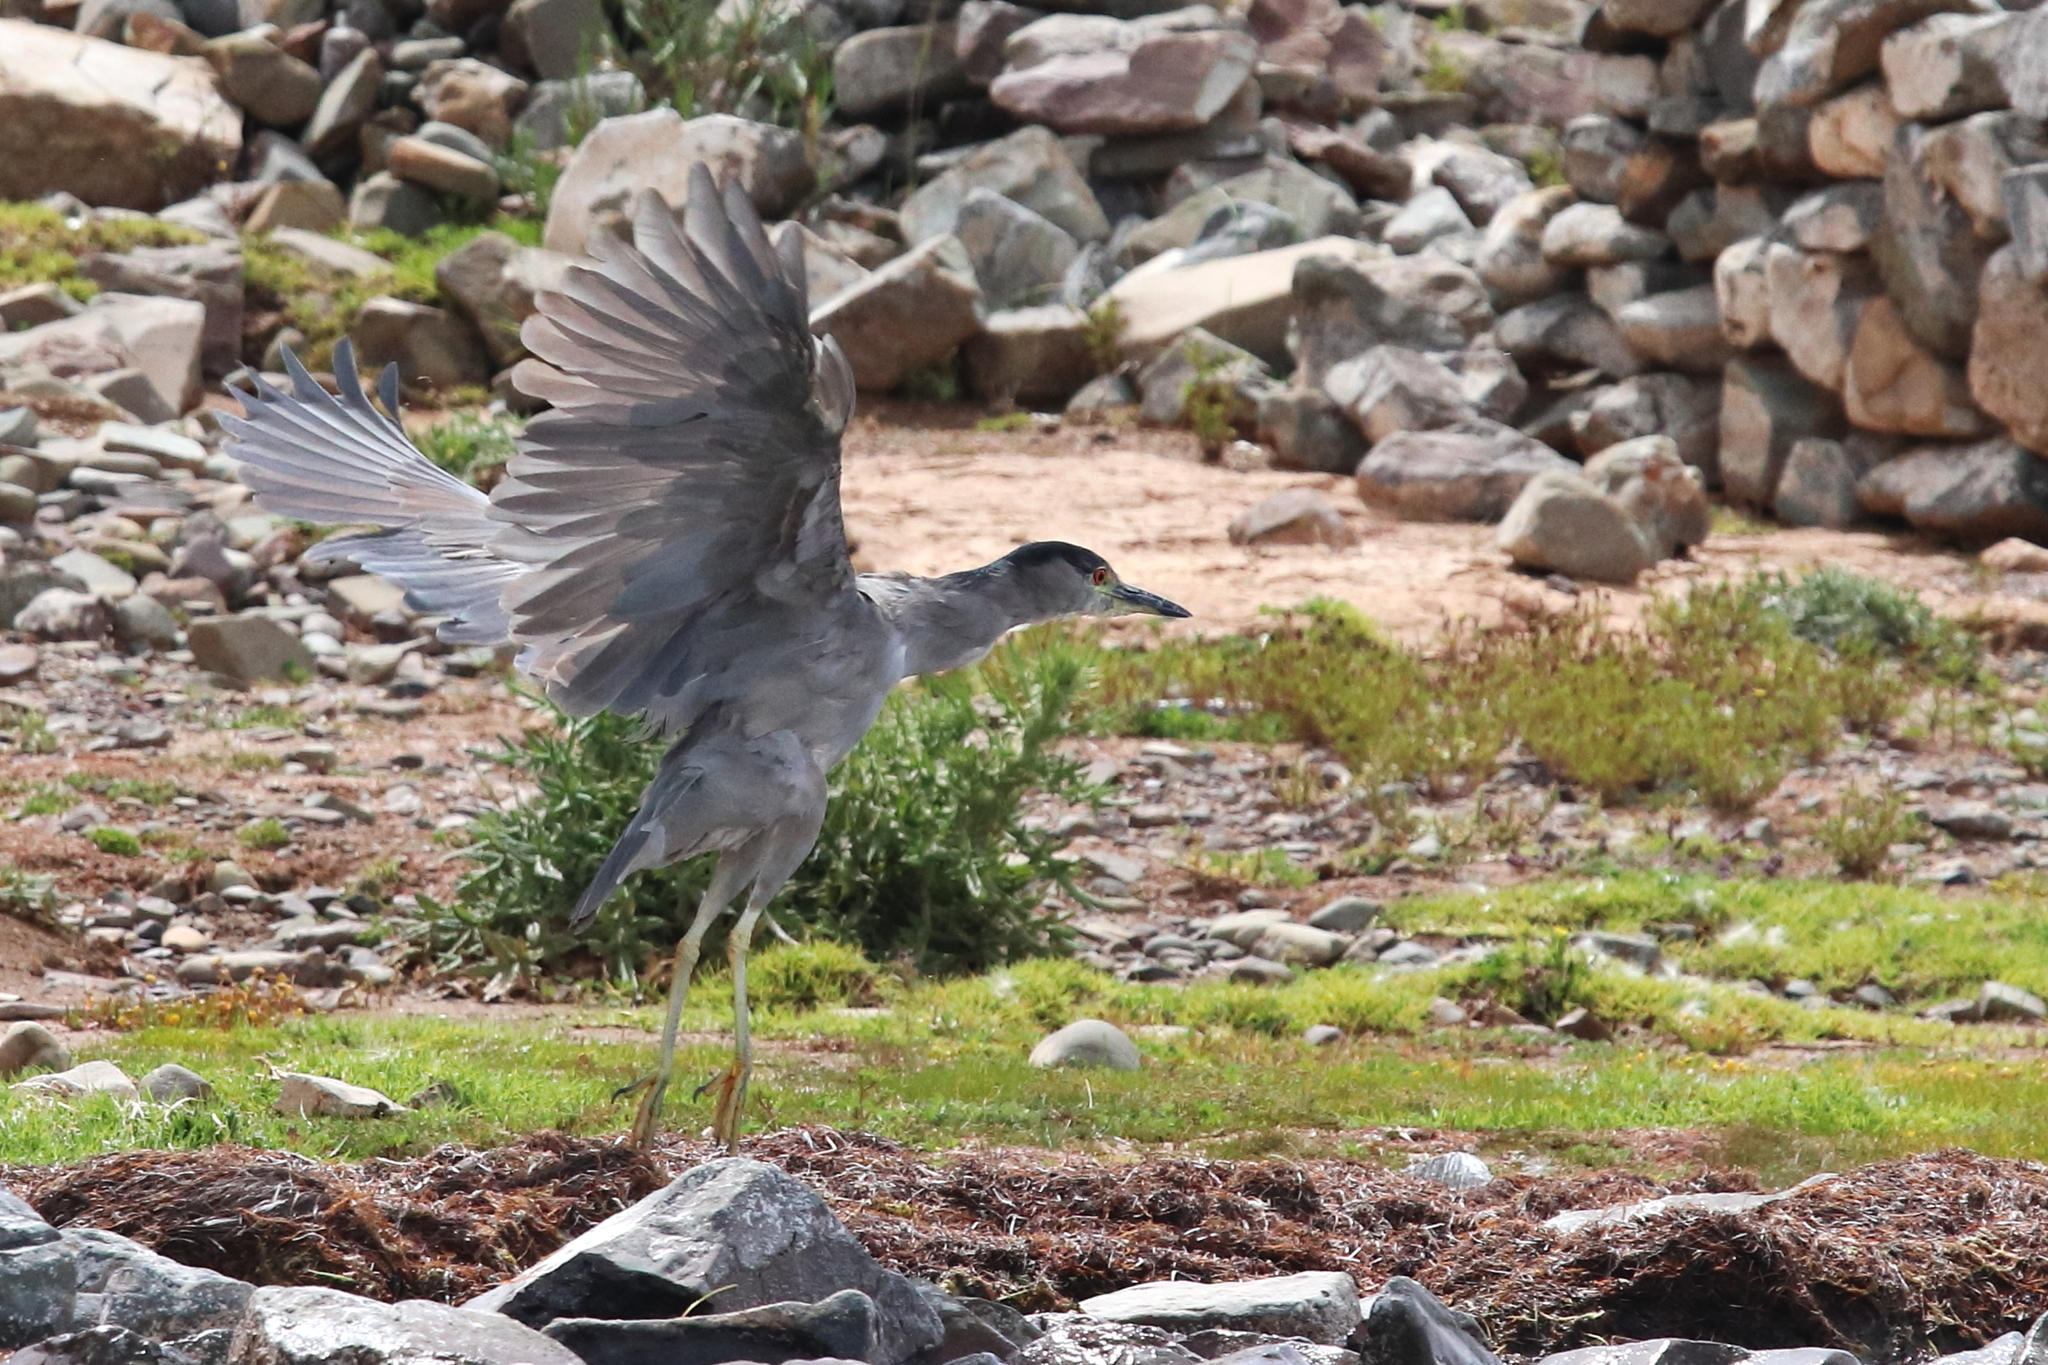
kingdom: Animalia
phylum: Chordata
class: Aves
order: Pelecaniformes
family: Ardeidae
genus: Nycticorax
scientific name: Nycticorax nycticorax
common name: Black-crowned night heron
